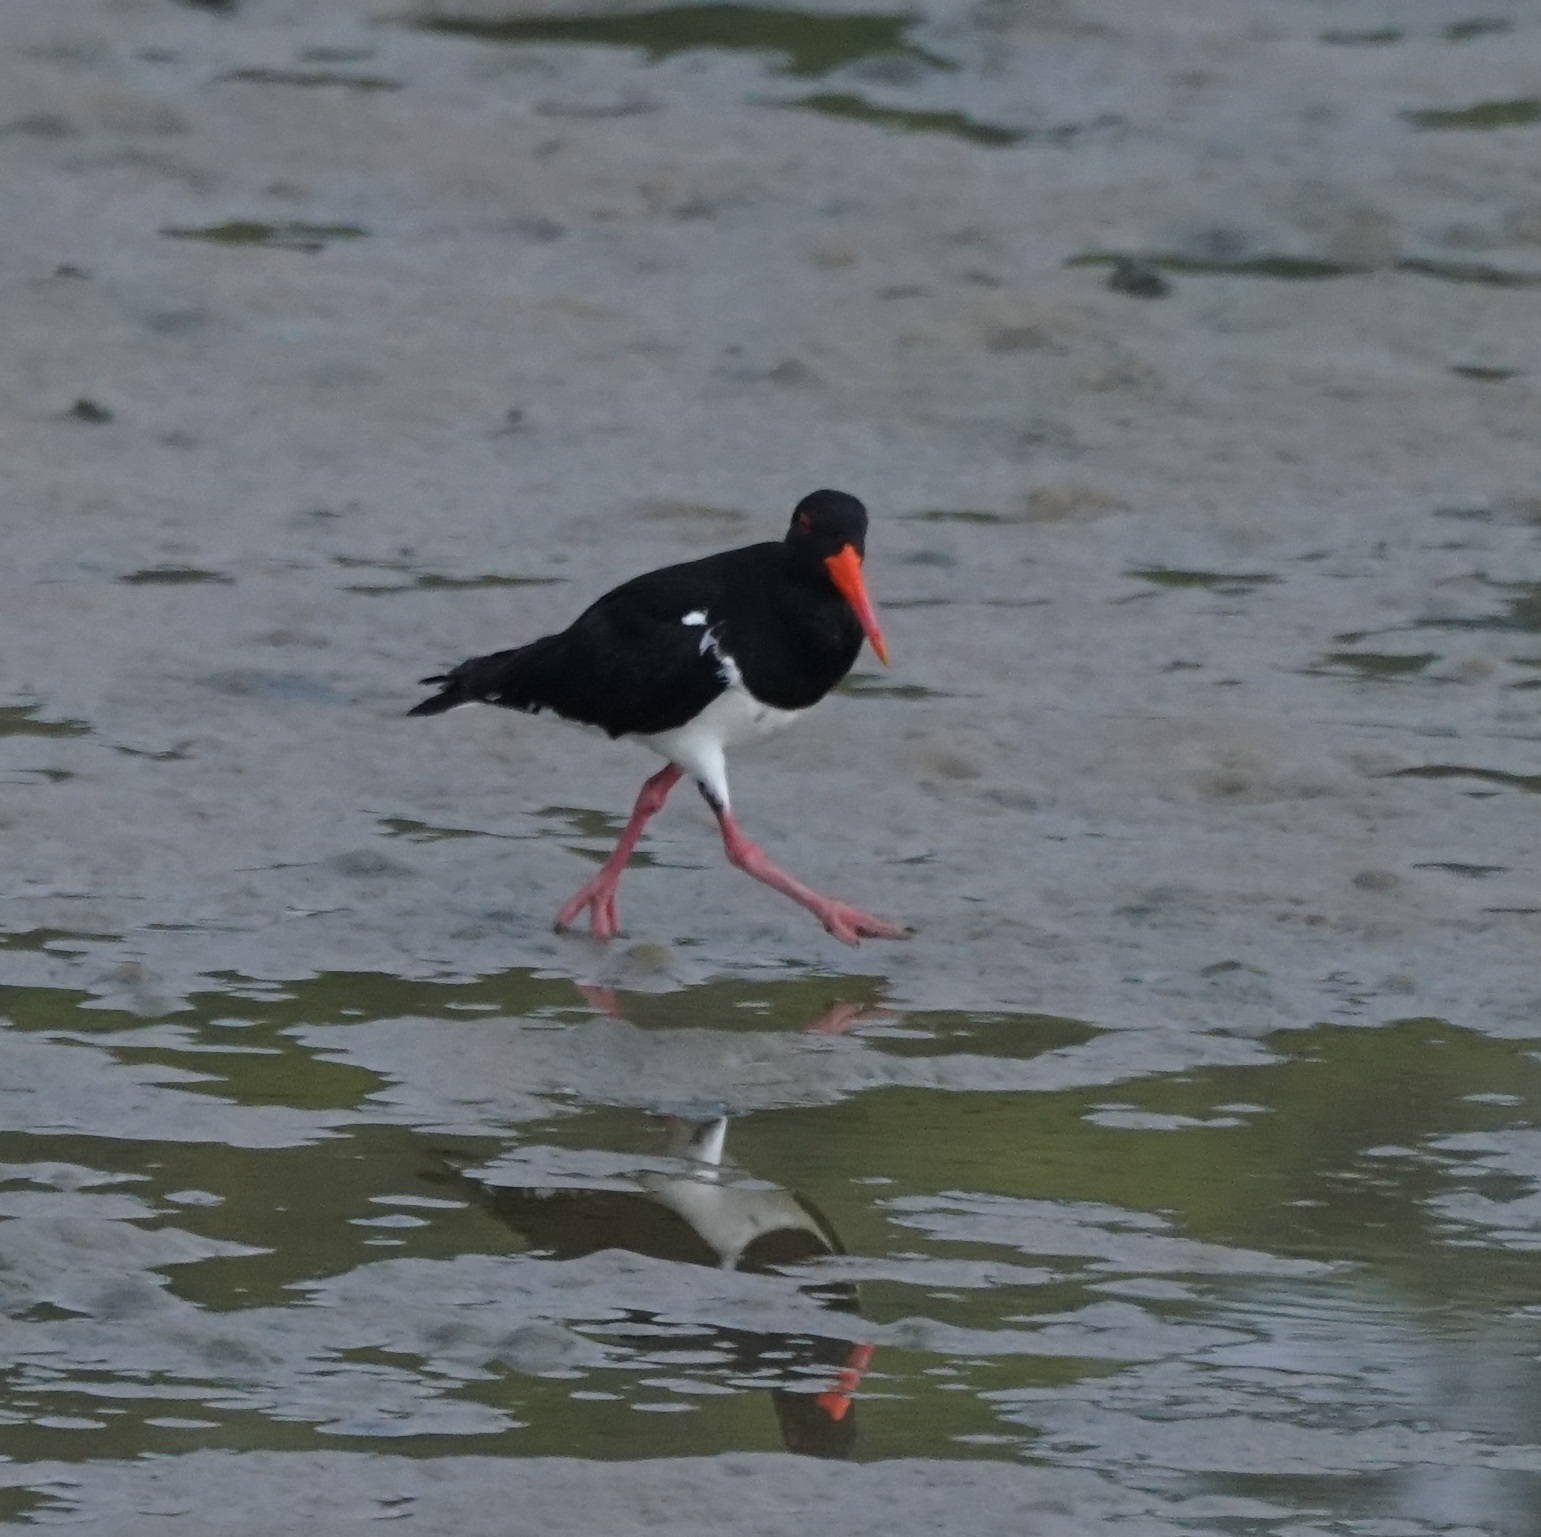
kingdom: Animalia
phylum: Chordata
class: Aves
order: Charadriiformes
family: Haematopodidae
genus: Haematopus
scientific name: Haematopus longirostris
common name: Pied oystercatcher
